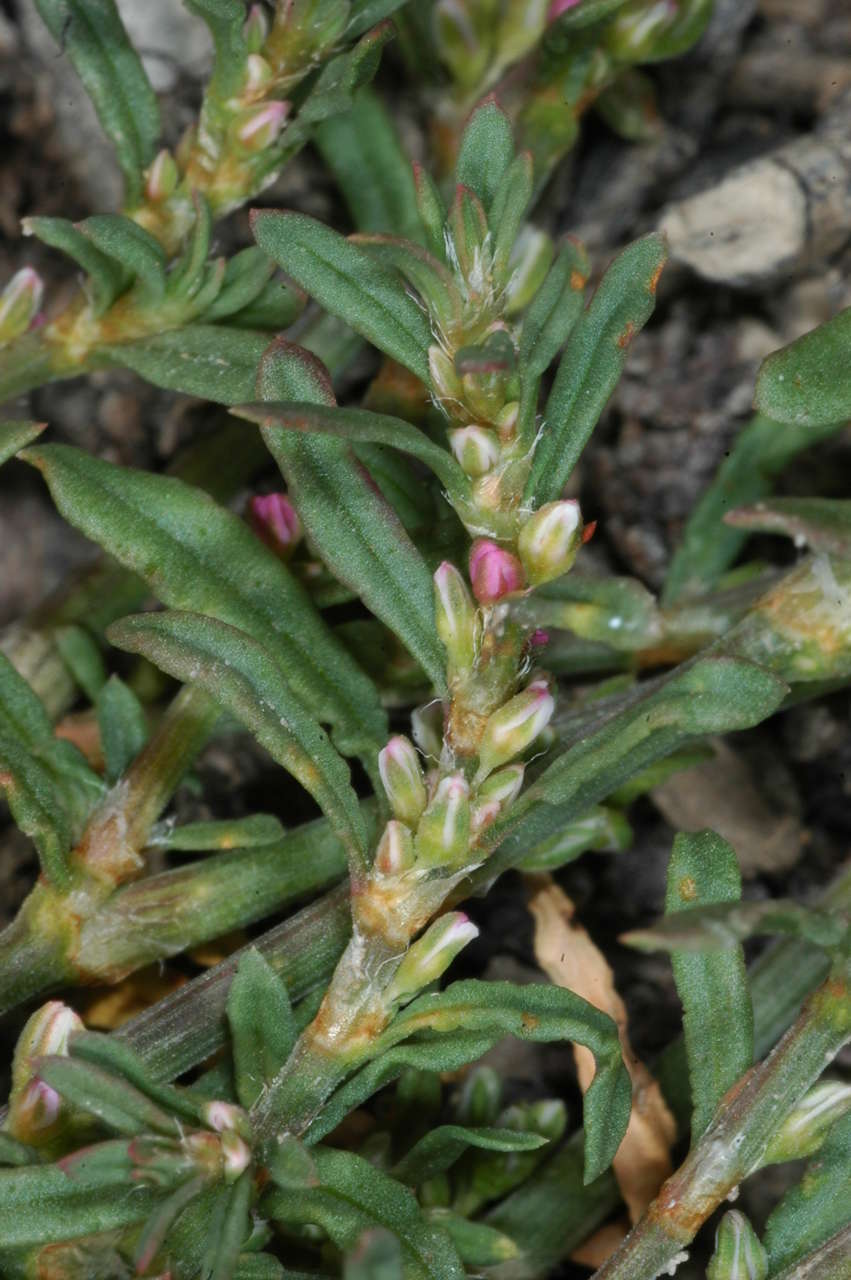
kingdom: Plantae
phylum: Tracheophyta
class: Magnoliopsida
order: Caryophyllales
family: Polygonaceae
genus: Polygonum
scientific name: Polygonum plebeium
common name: Common knotweed
